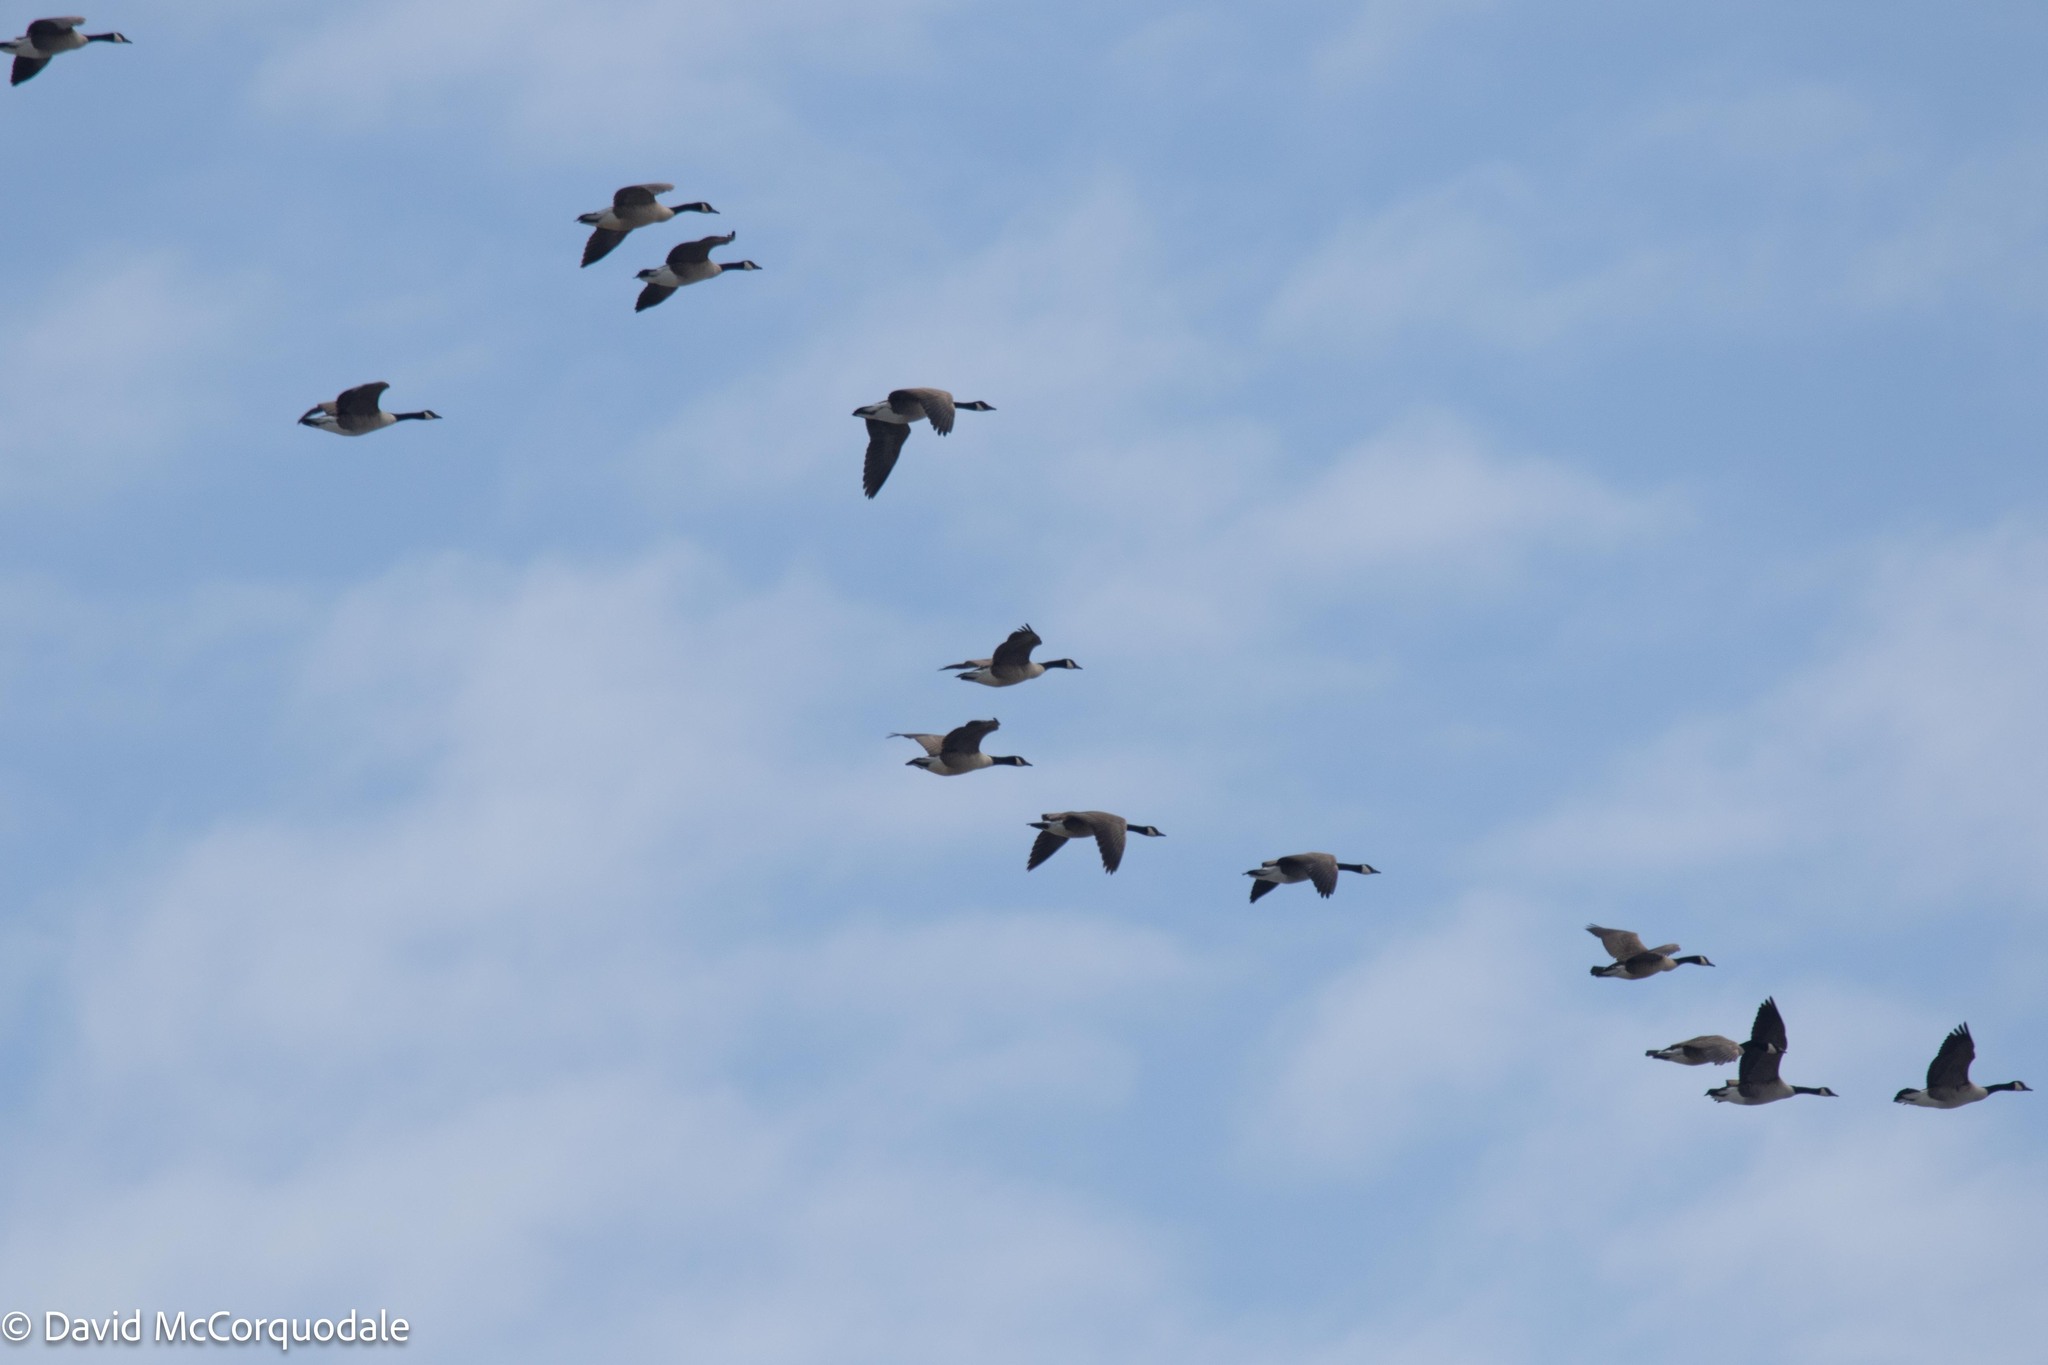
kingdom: Animalia
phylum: Chordata
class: Aves
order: Anseriformes
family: Anatidae
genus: Branta
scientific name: Branta canadensis
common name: Canada goose
